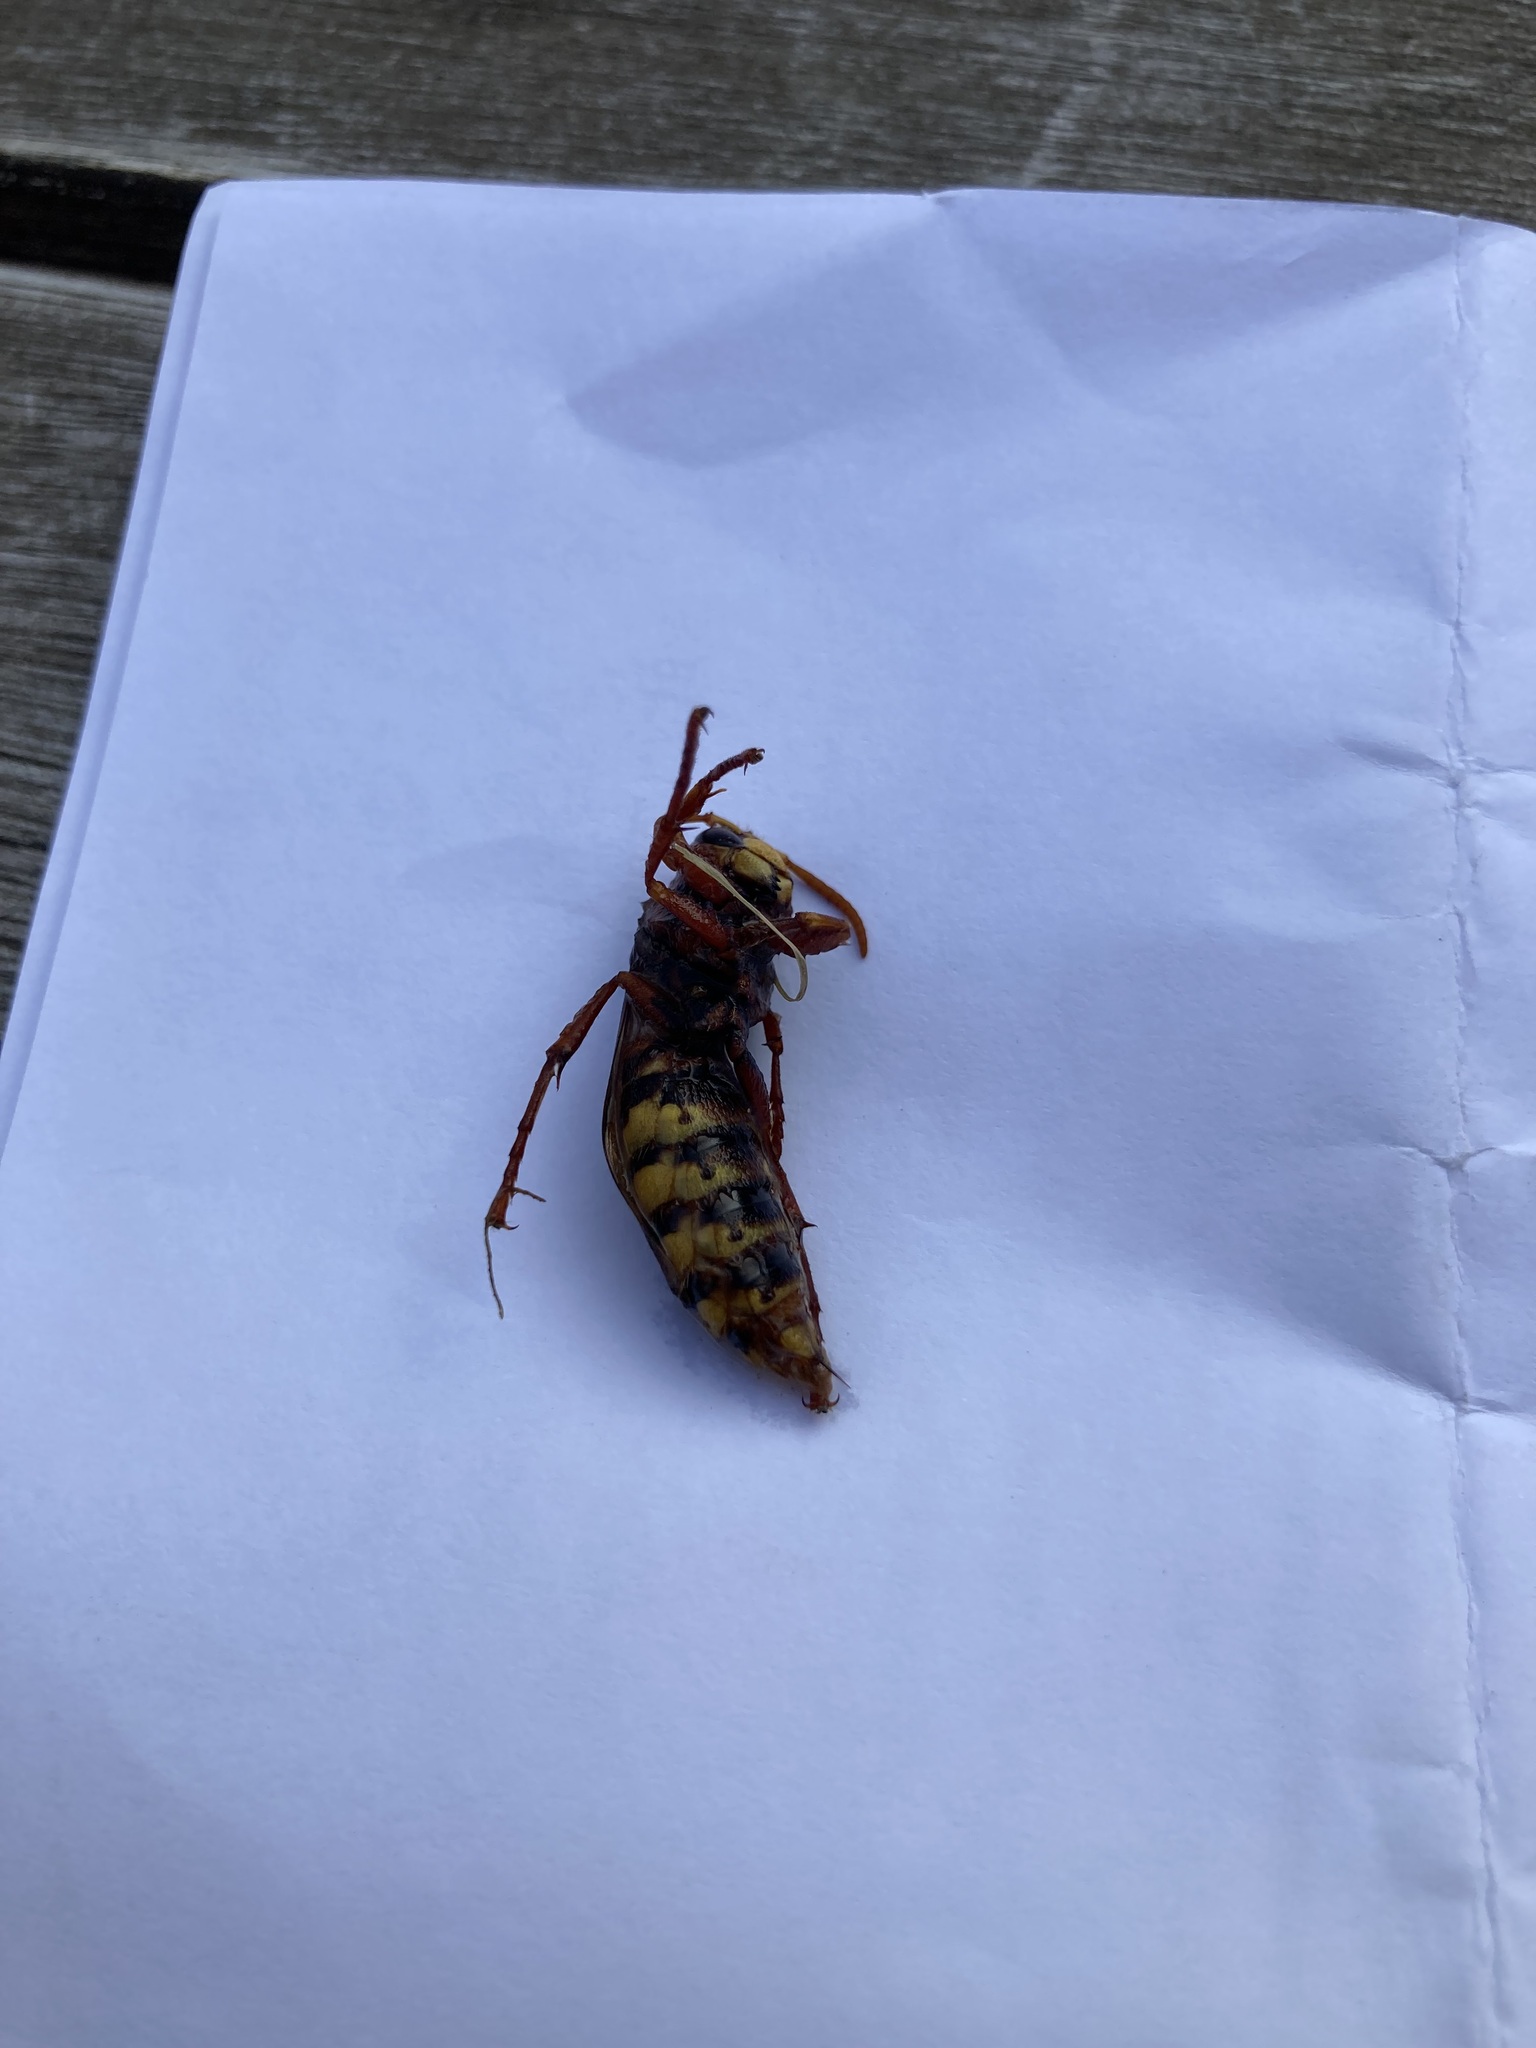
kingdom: Animalia
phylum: Arthropoda
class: Insecta
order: Hymenoptera
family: Vespidae
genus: Vespa
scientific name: Vespa crabro
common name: Hornet
